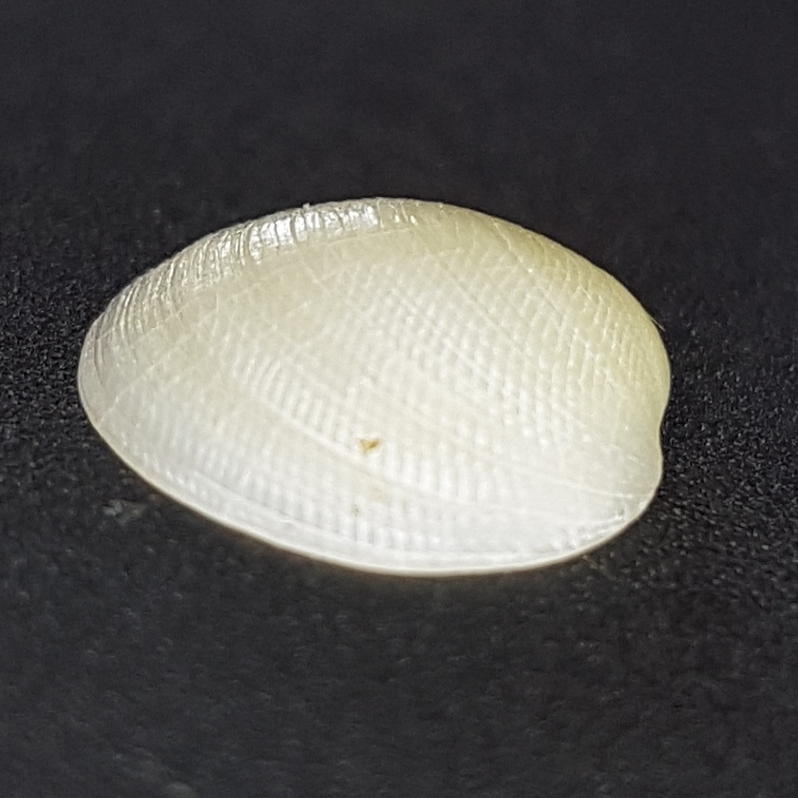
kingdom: Animalia
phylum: Mollusca
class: Bivalvia
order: Lucinida
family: Lucinidae
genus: Lucinella
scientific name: Lucinella divaricata
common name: Divaricate lucine
